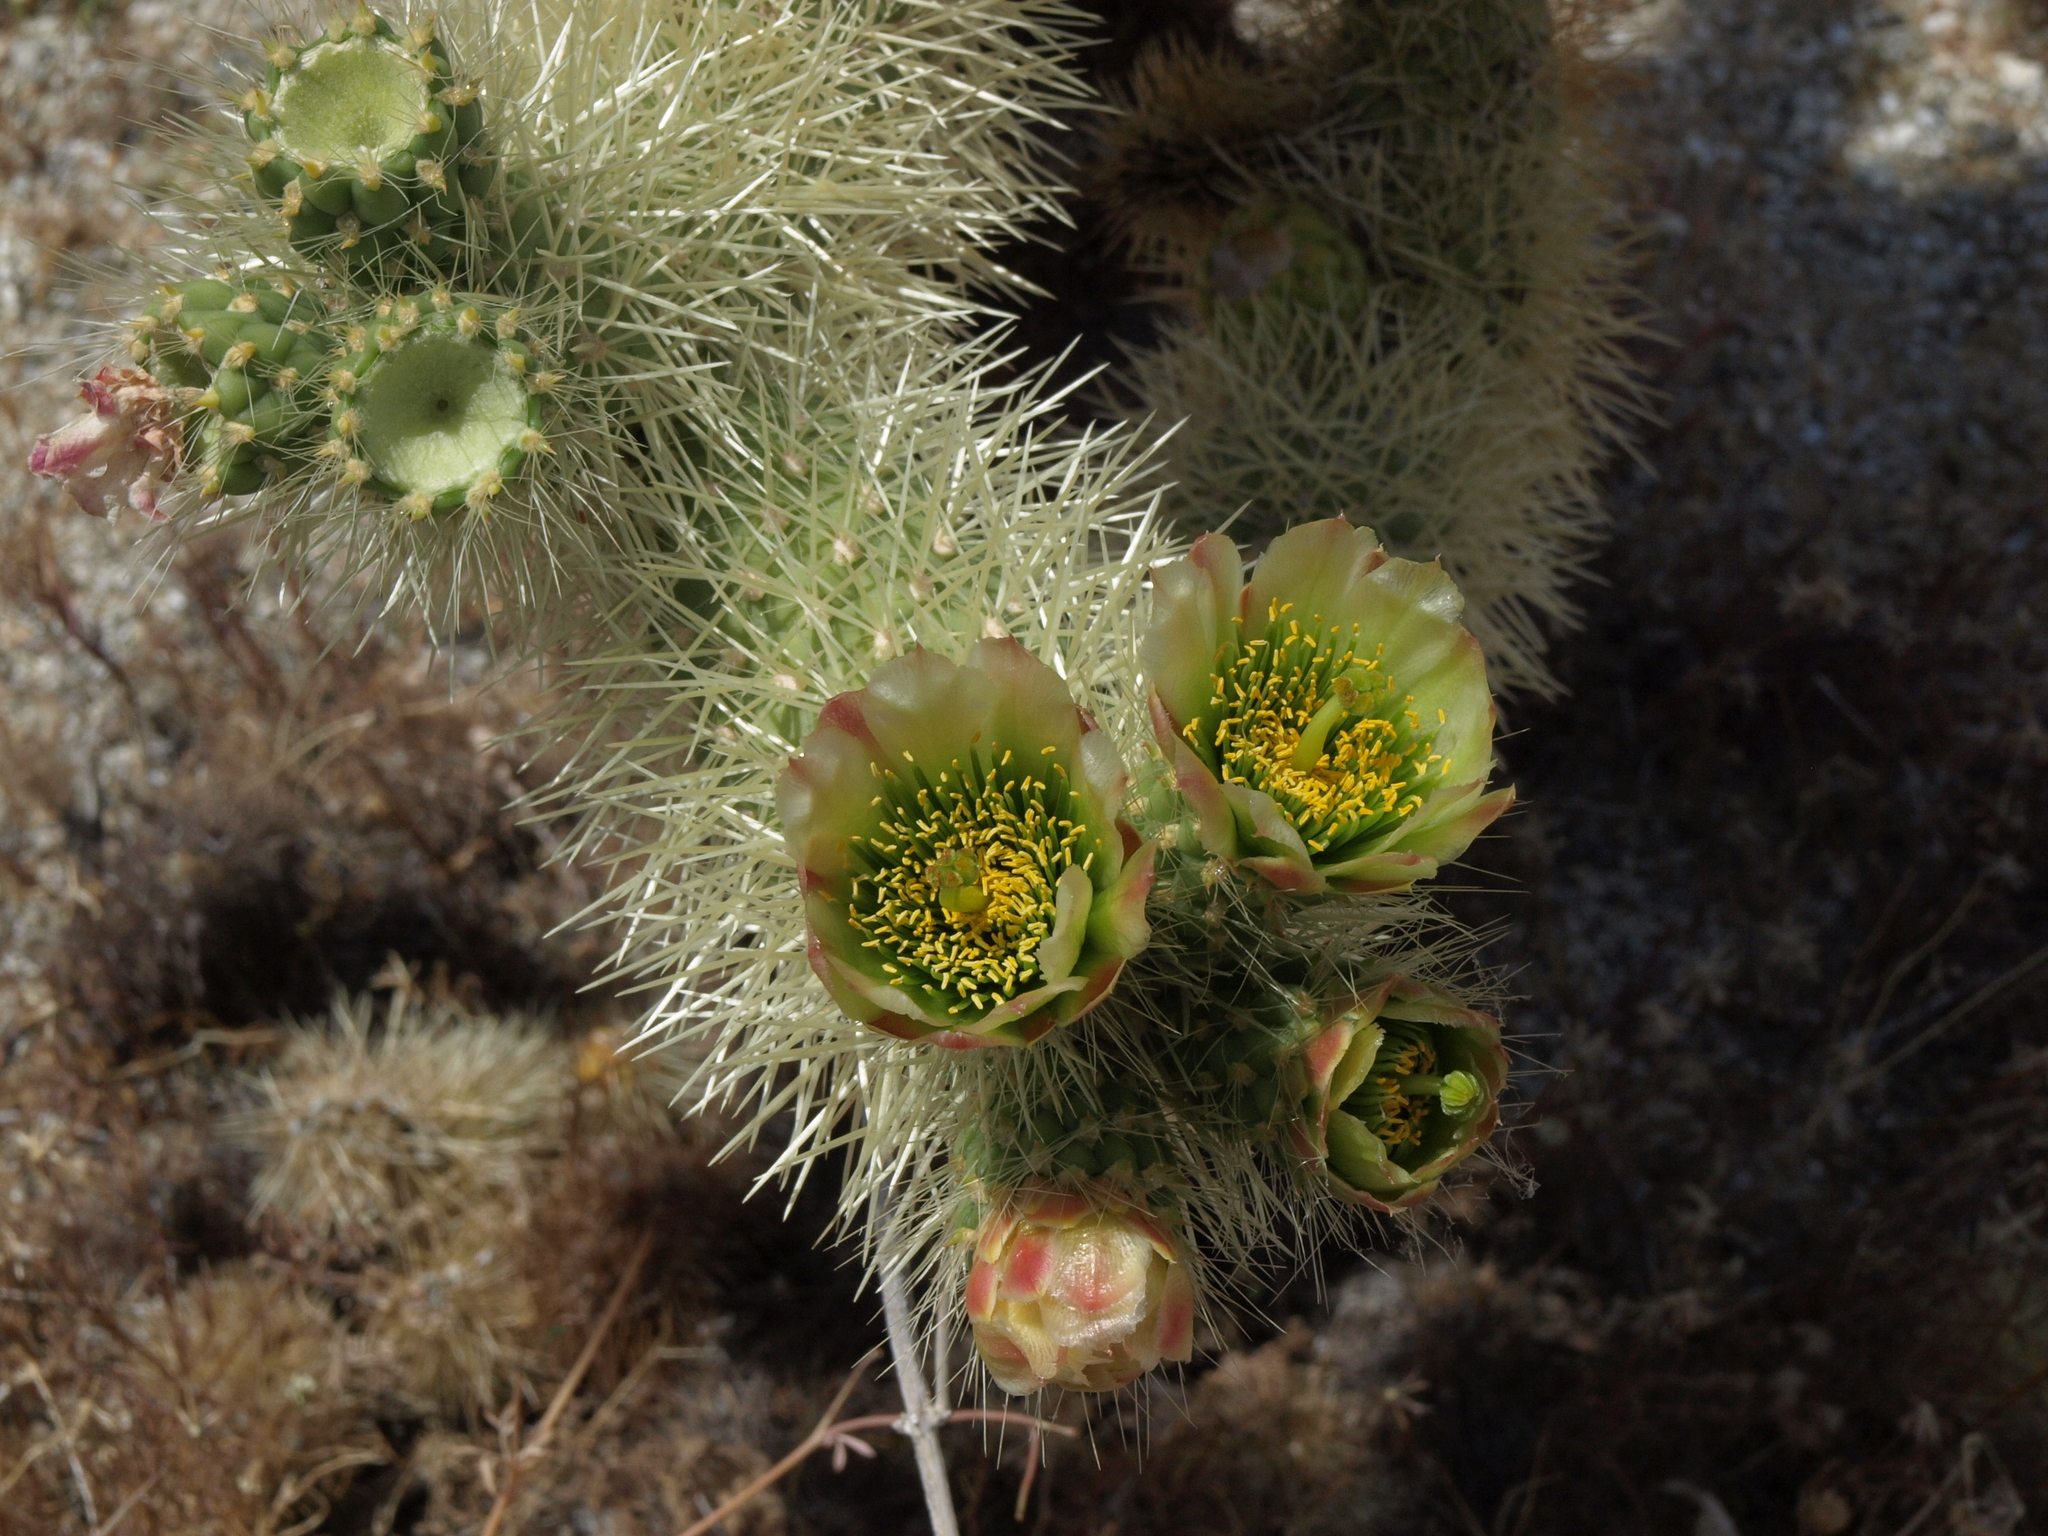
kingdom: Plantae
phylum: Tracheophyta
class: Magnoliopsida
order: Caryophyllales
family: Cactaceae
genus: Cylindropuntia
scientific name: Cylindropuntia fosbergii
